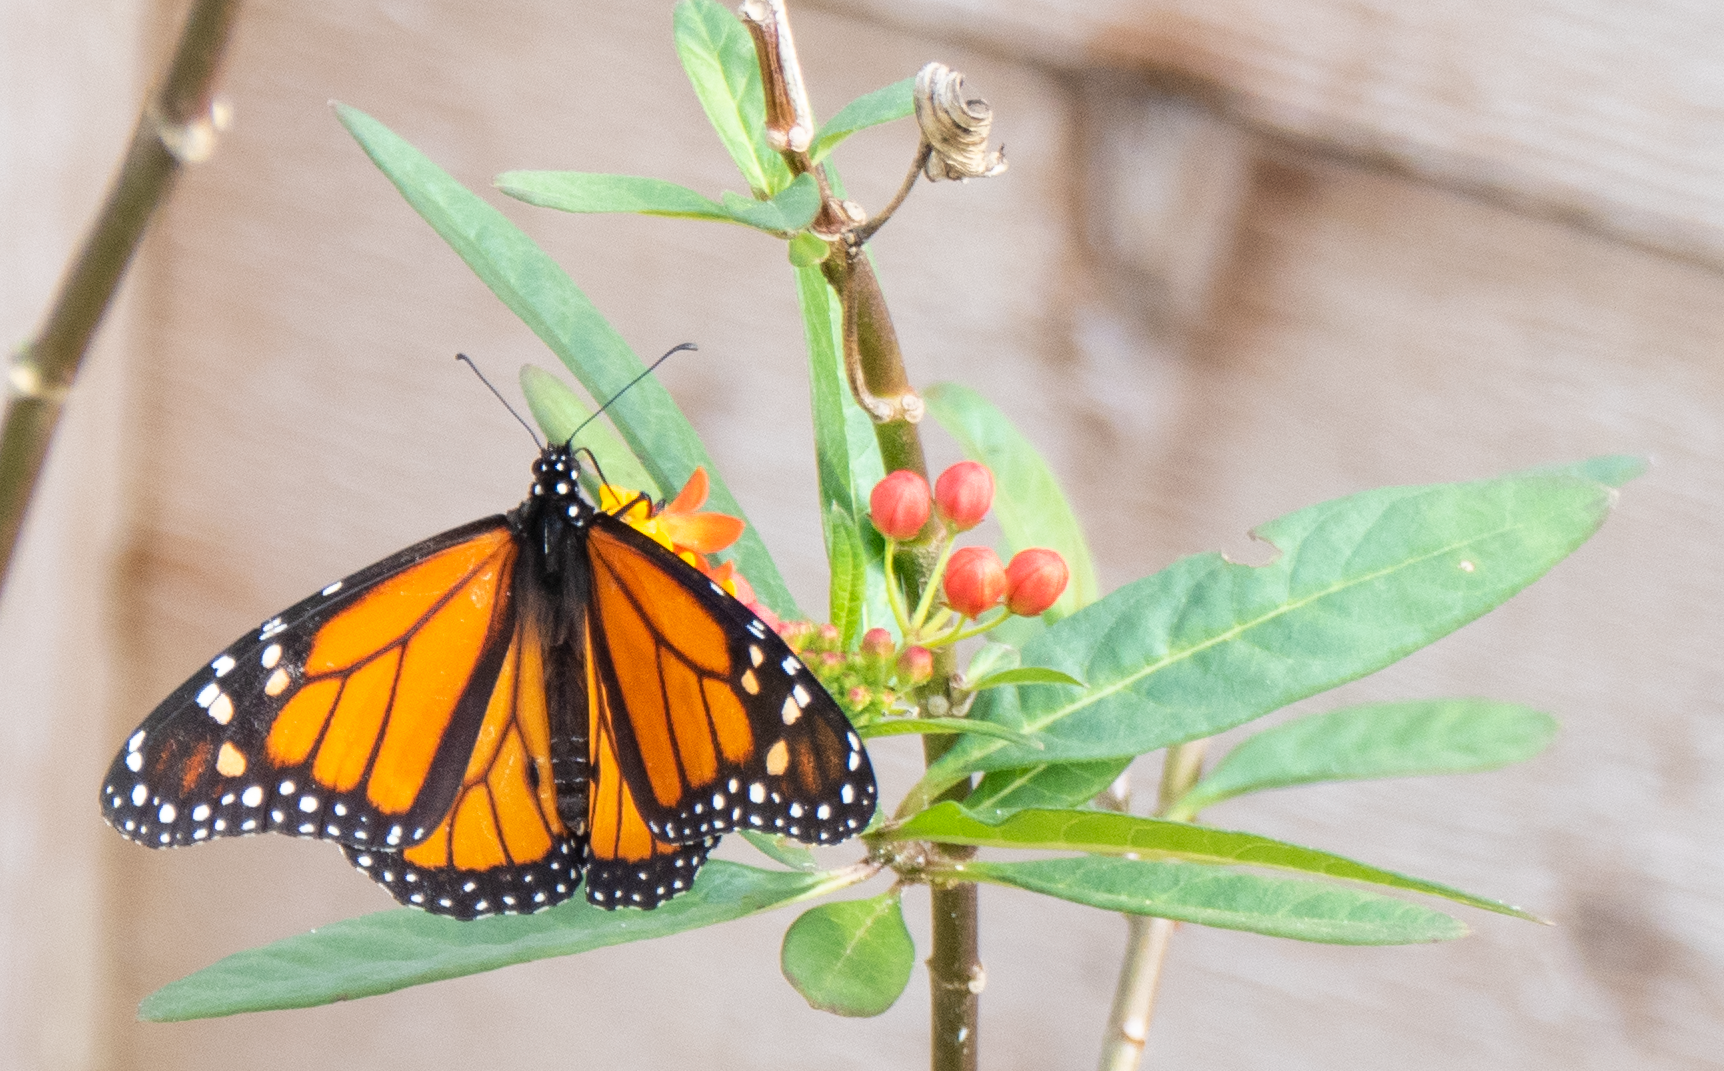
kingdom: Animalia
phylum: Arthropoda
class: Insecta
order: Lepidoptera
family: Nymphalidae
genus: Danaus
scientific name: Danaus plexippus
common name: Monarch
